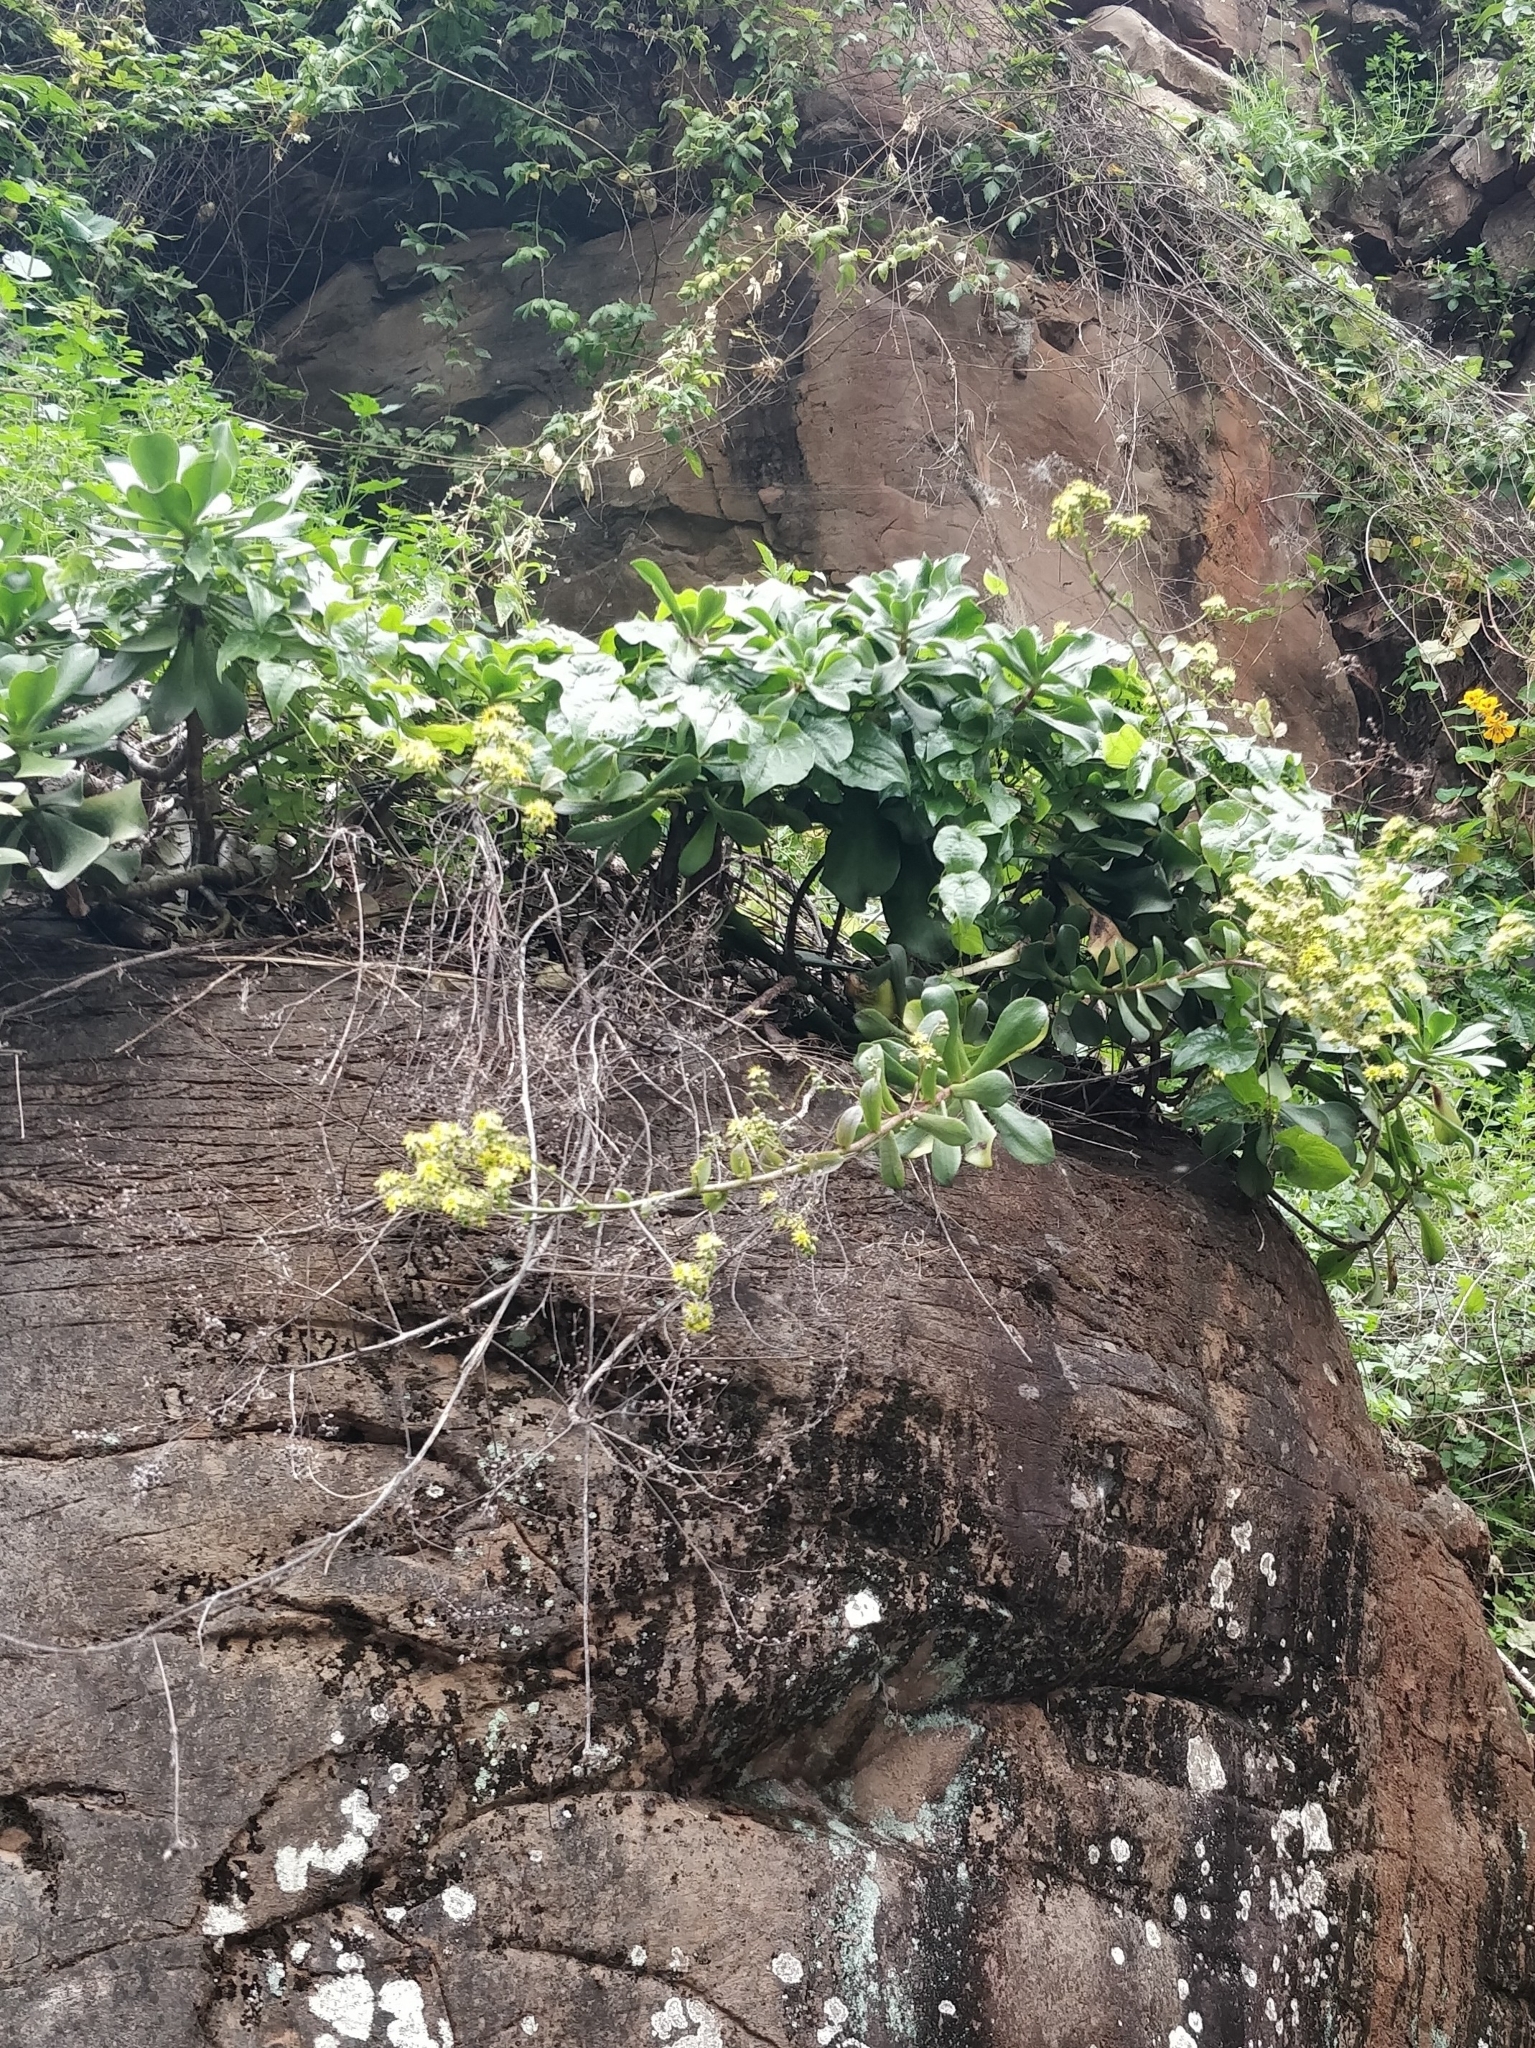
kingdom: Plantae
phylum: Tracheophyta
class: Magnoliopsida
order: Saxifragales
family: Crassulaceae
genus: Aeonium
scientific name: Aeonium glutinosum
